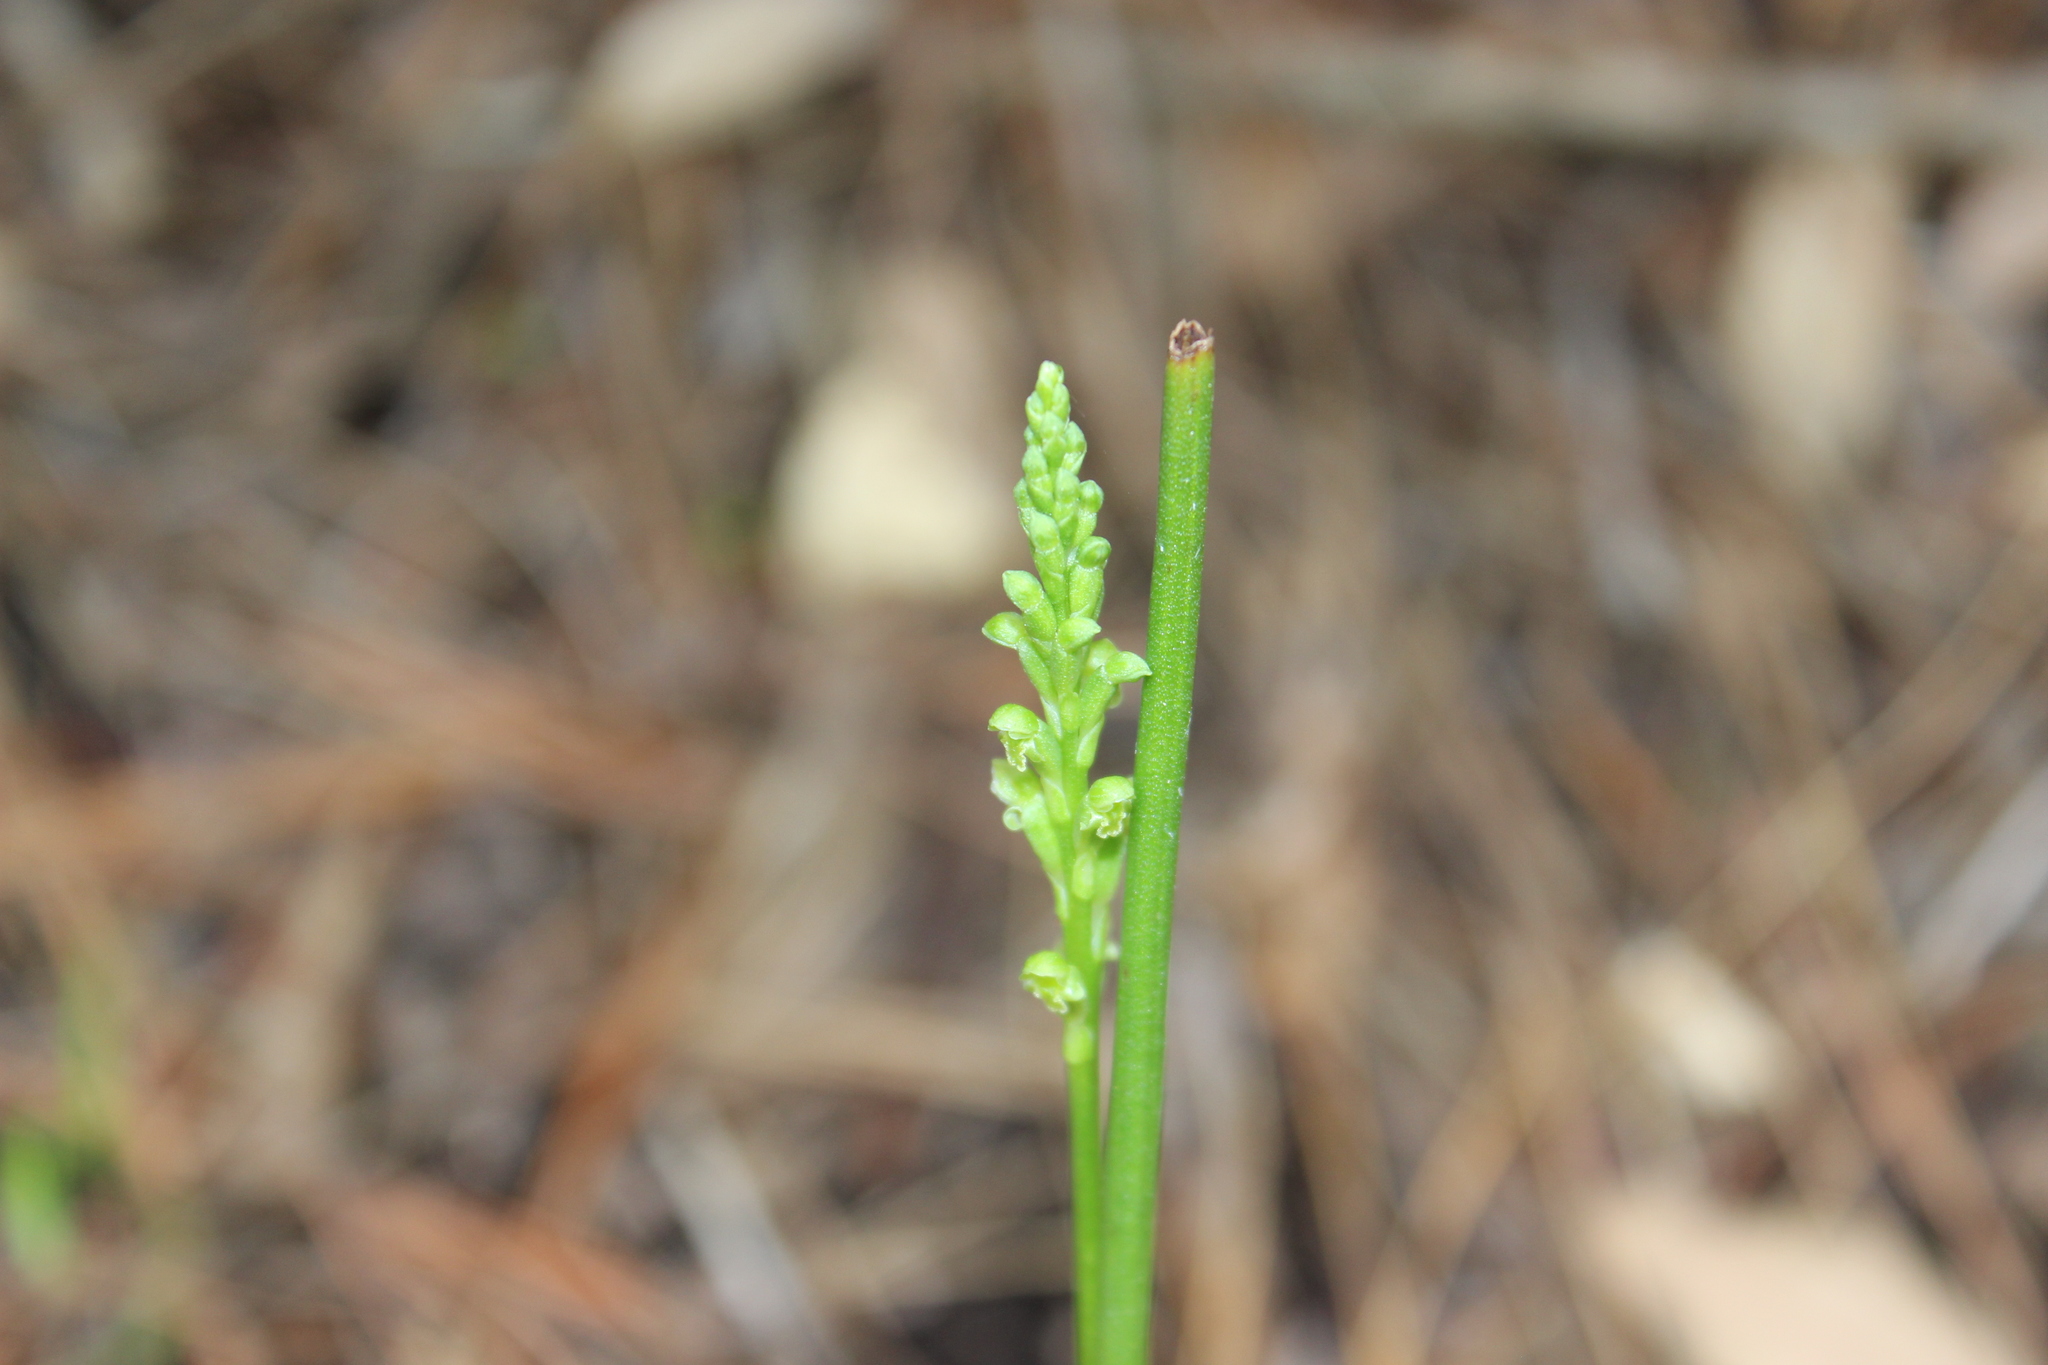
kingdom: Plantae
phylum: Tracheophyta
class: Liliopsida
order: Asparagales
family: Orchidaceae
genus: Microtis
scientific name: Microtis unifolia
